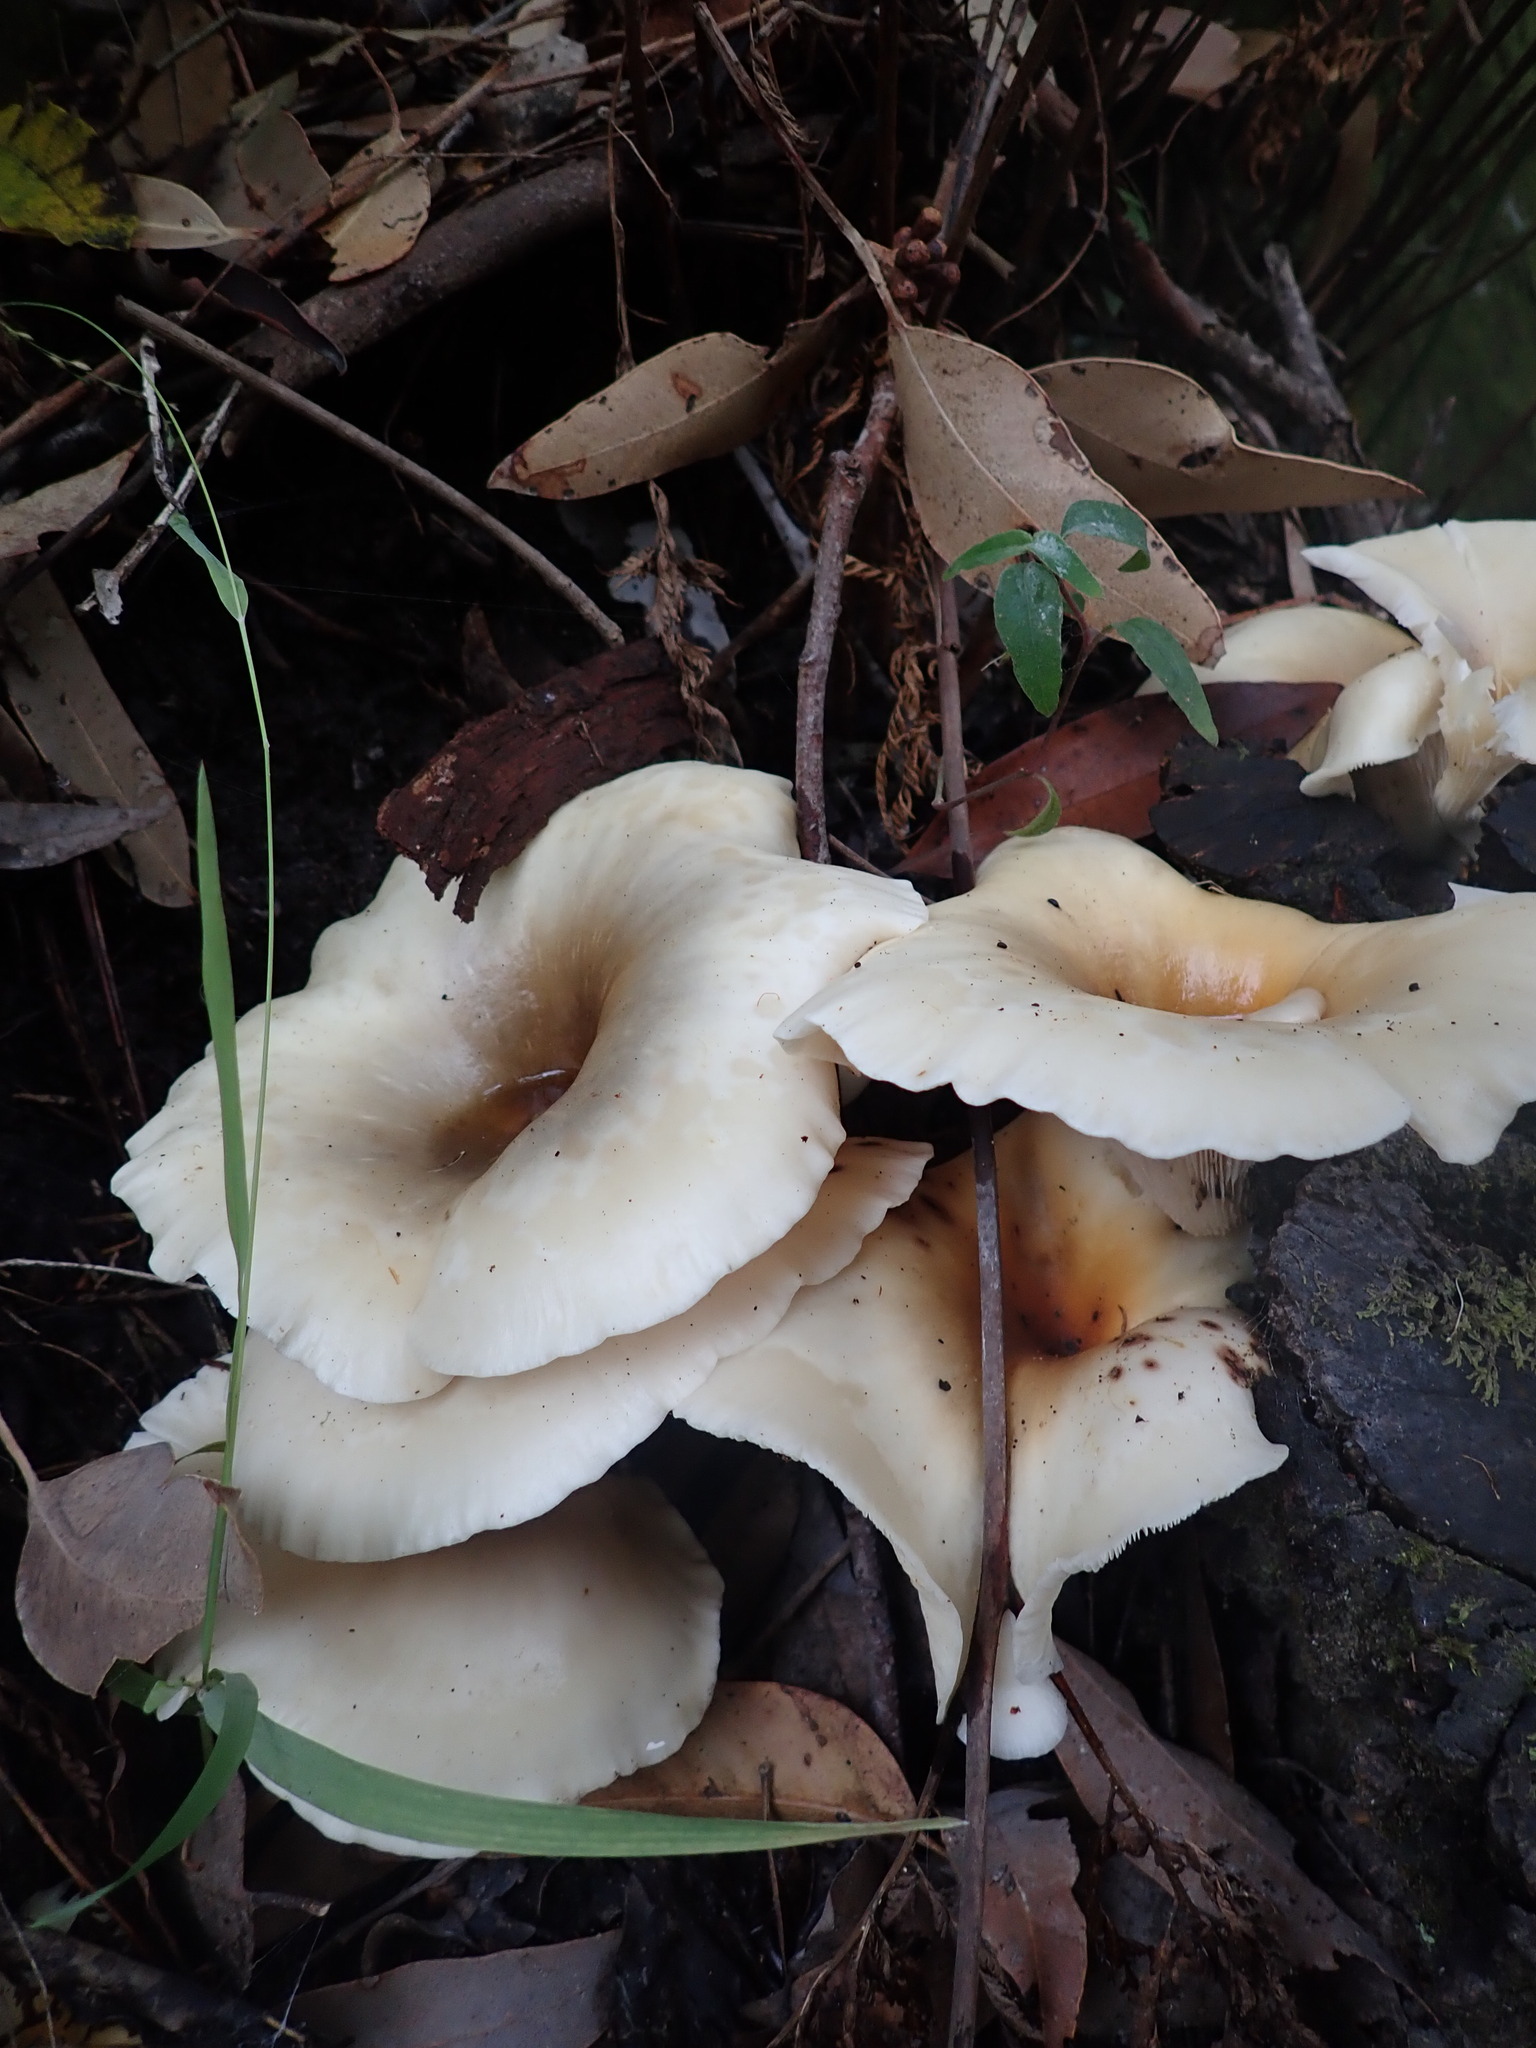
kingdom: Fungi
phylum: Basidiomycota
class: Agaricomycetes
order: Agaricales
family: Omphalotaceae
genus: Omphalotus
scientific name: Omphalotus nidiformis
